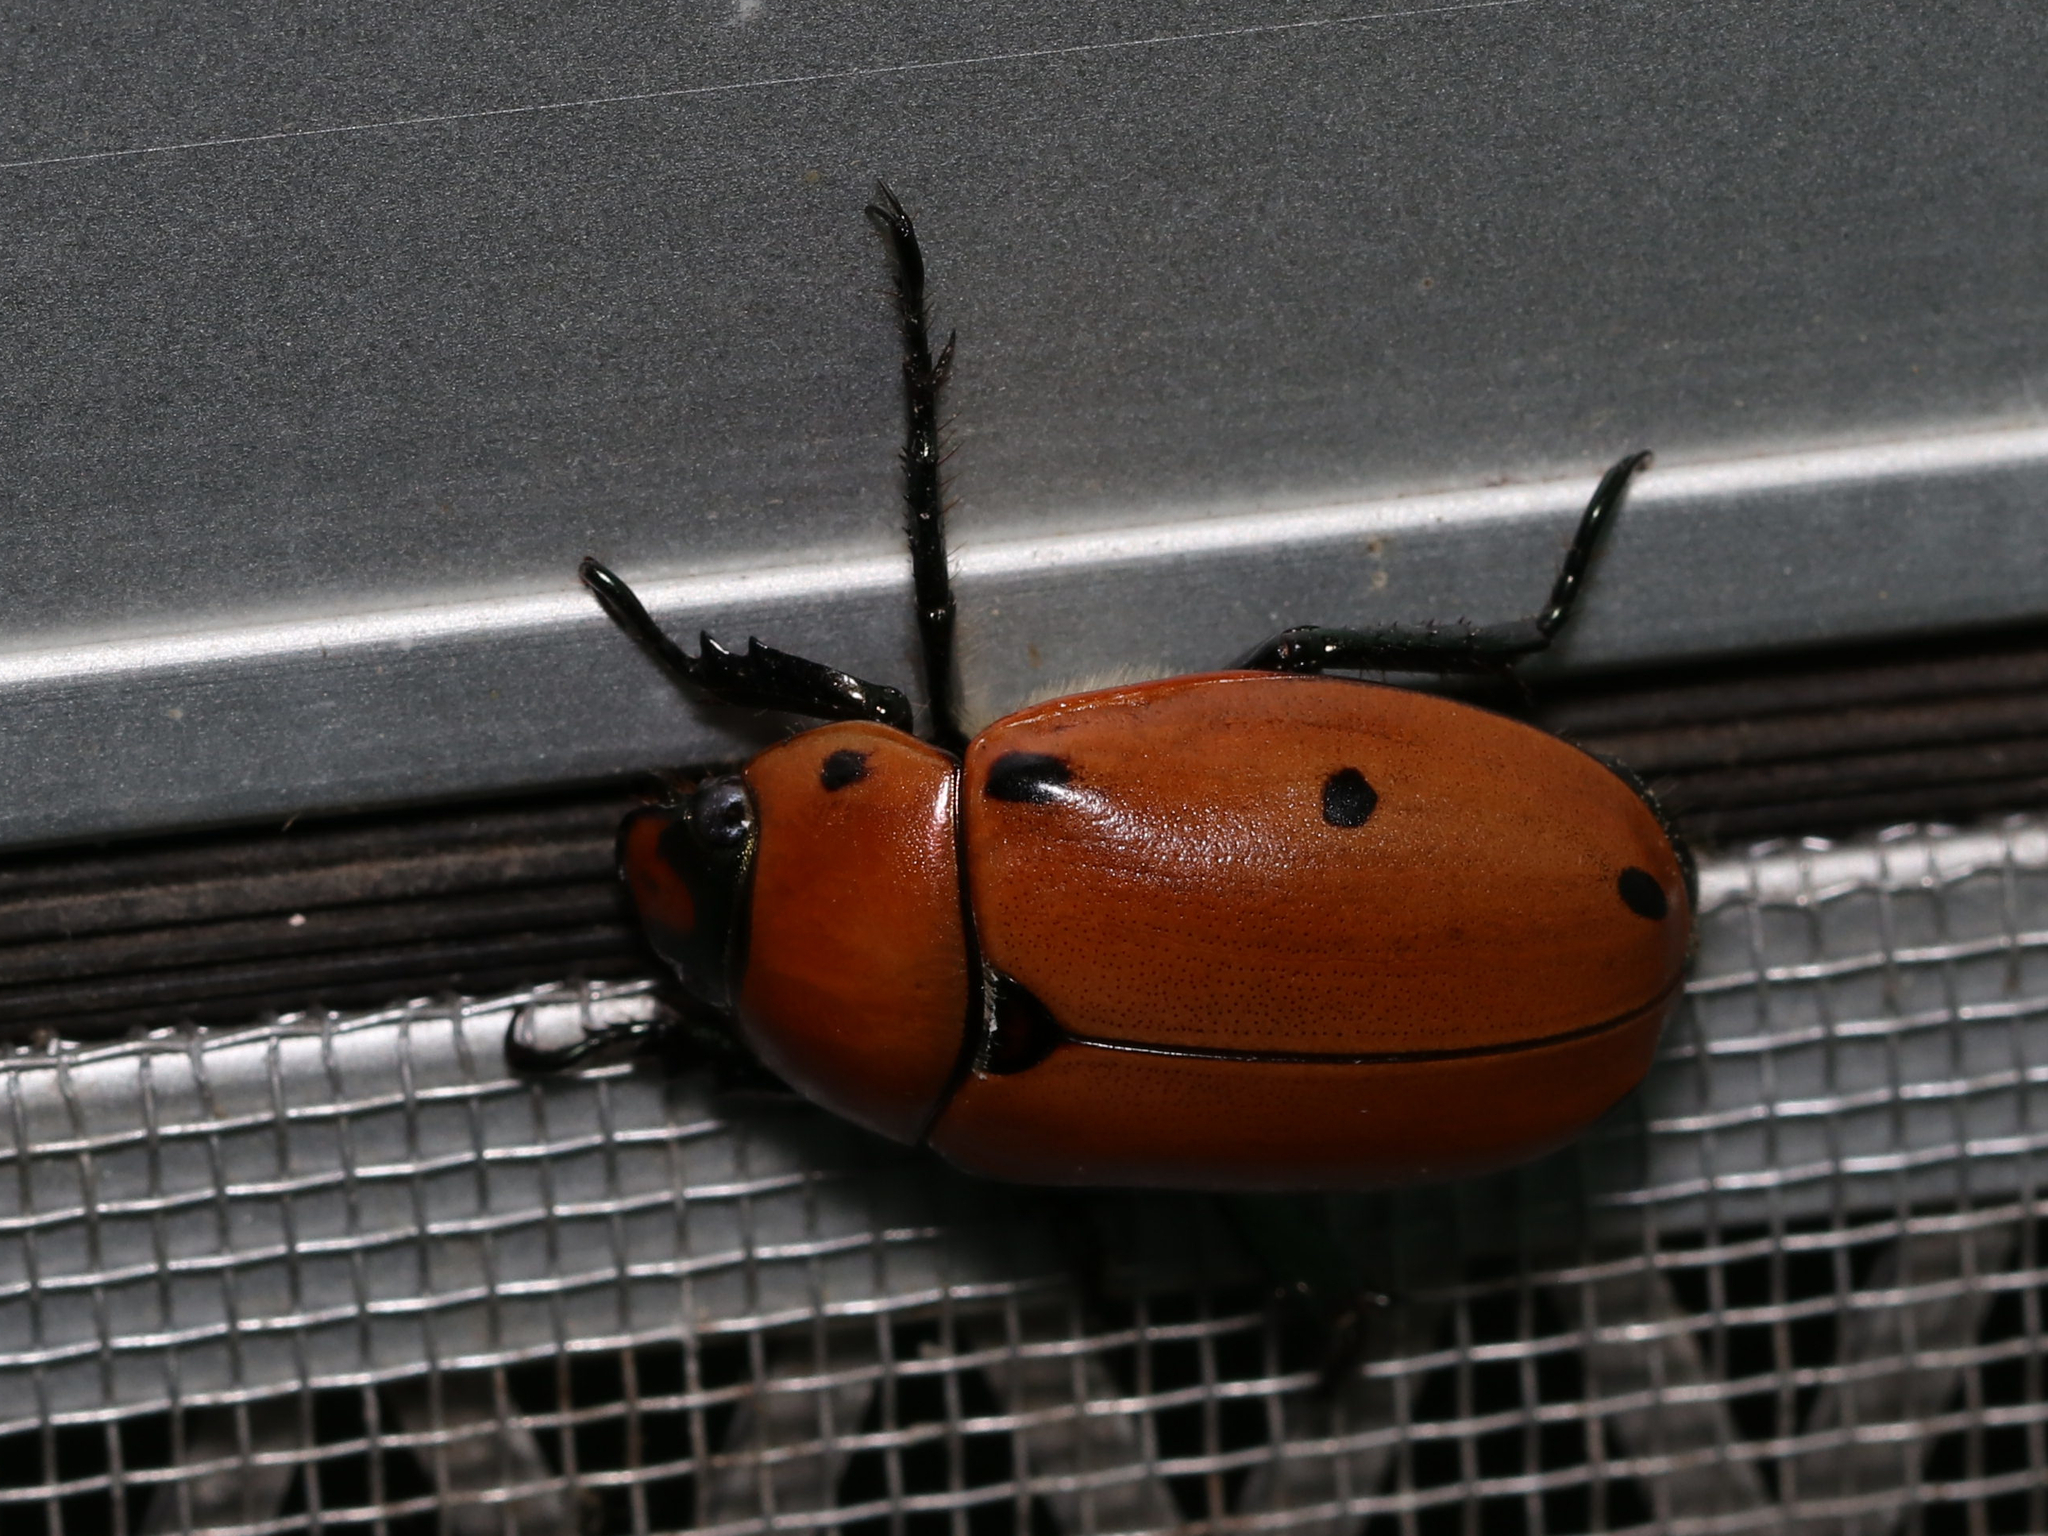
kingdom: Animalia
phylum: Arthropoda
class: Insecta
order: Coleoptera
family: Scarabaeidae
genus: Pelidnota
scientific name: Pelidnota punctata
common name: Grapevine beetle
